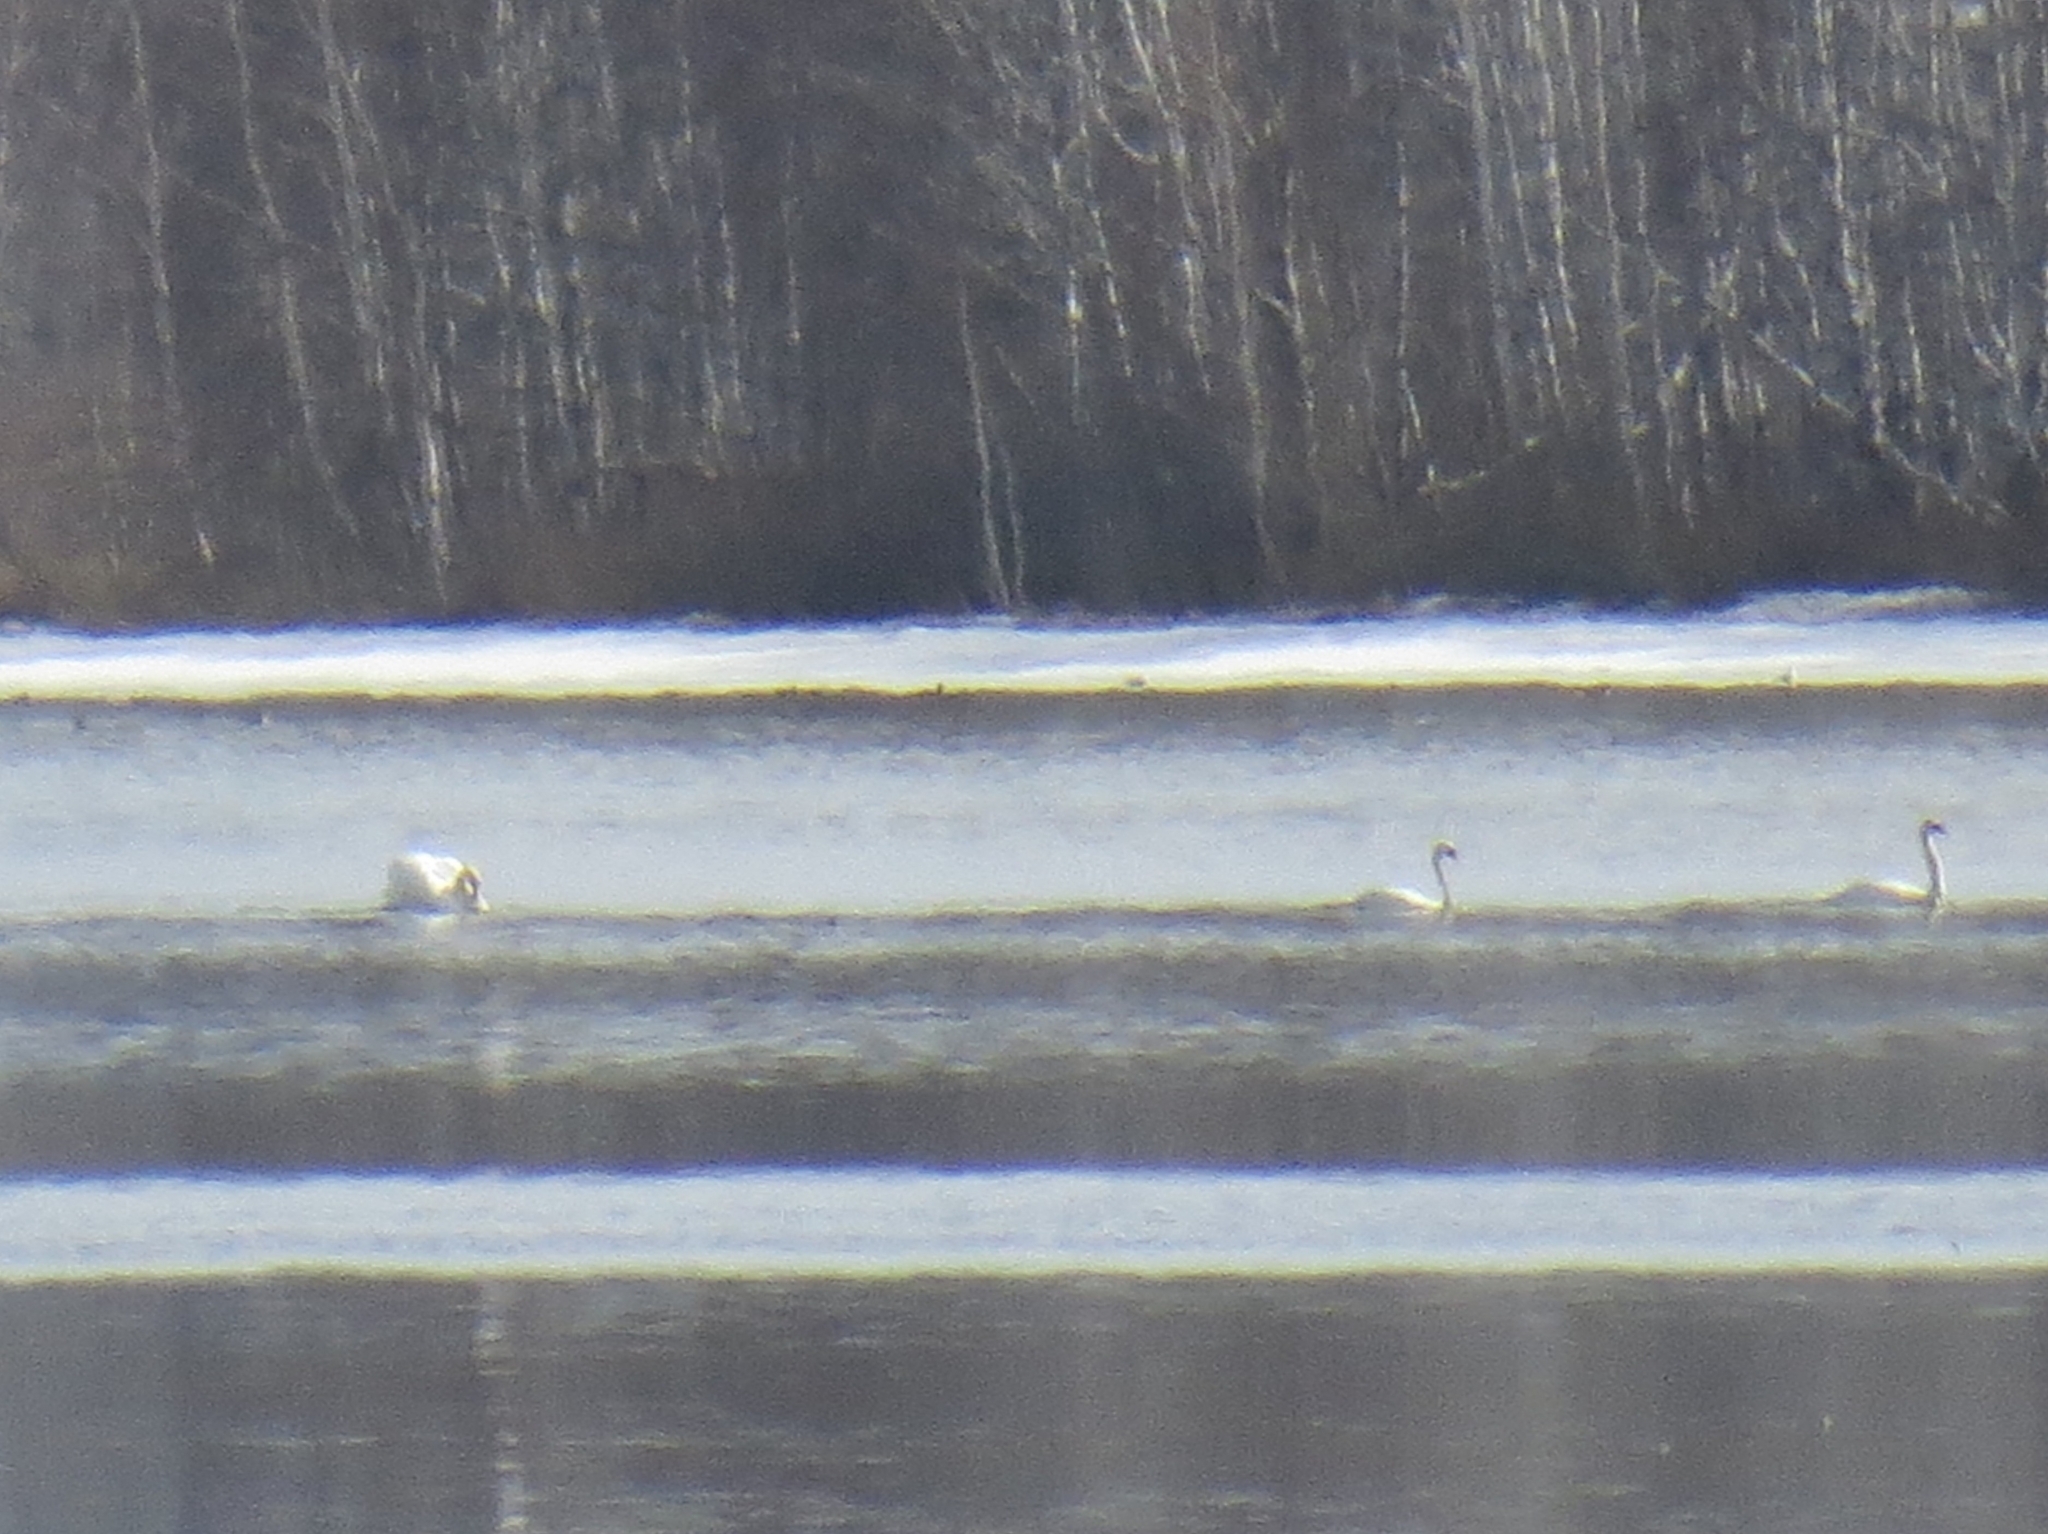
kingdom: Animalia
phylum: Chordata
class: Aves
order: Anseriformes
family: Anatidae
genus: Cygnus
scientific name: Cygnus olor
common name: Mute swan
